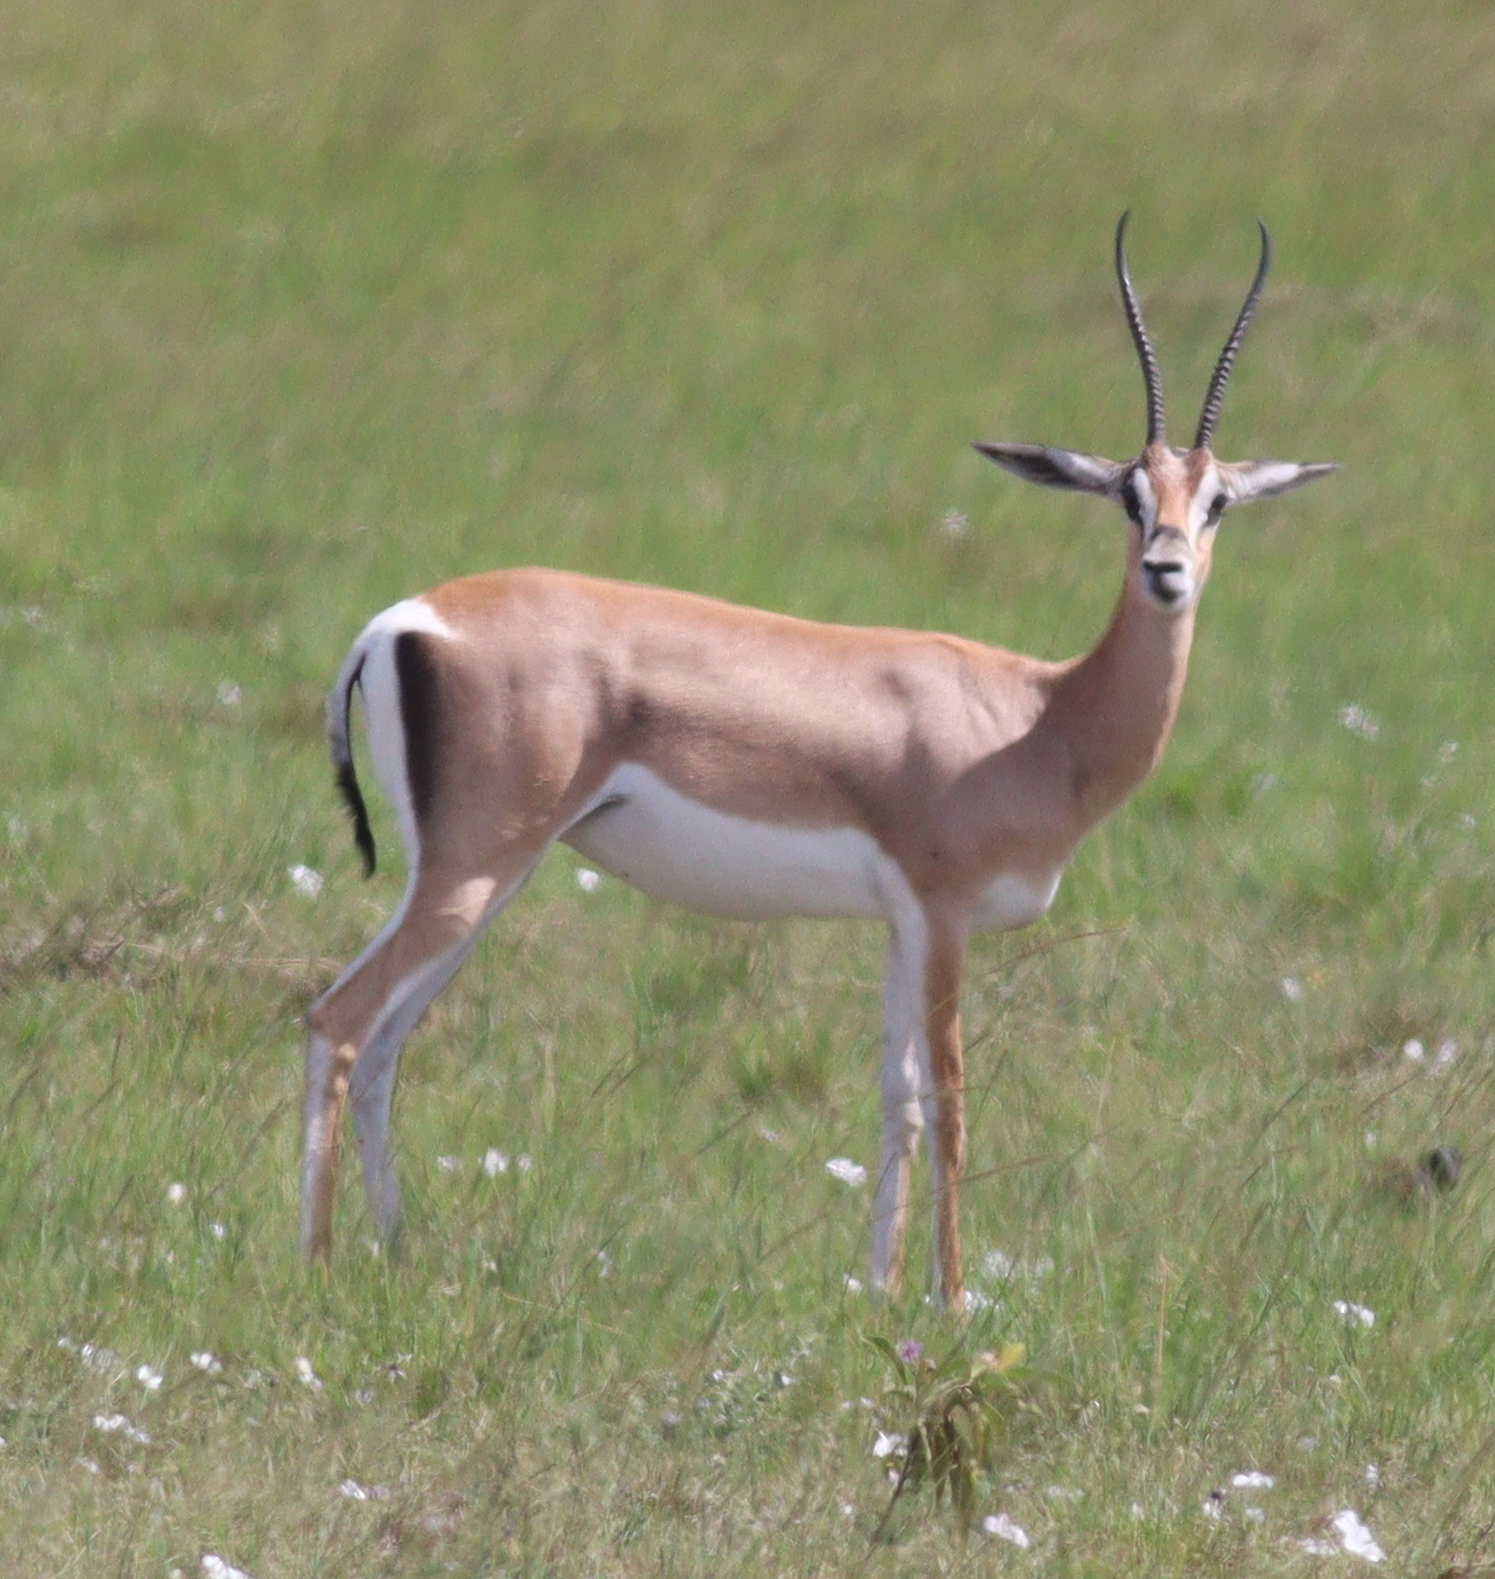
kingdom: Animalia
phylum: Chordata
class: Mammalia
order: Artiodactyla
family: Bovidae
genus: Nanger
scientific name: Nanger granti
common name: Grant's gazelle
